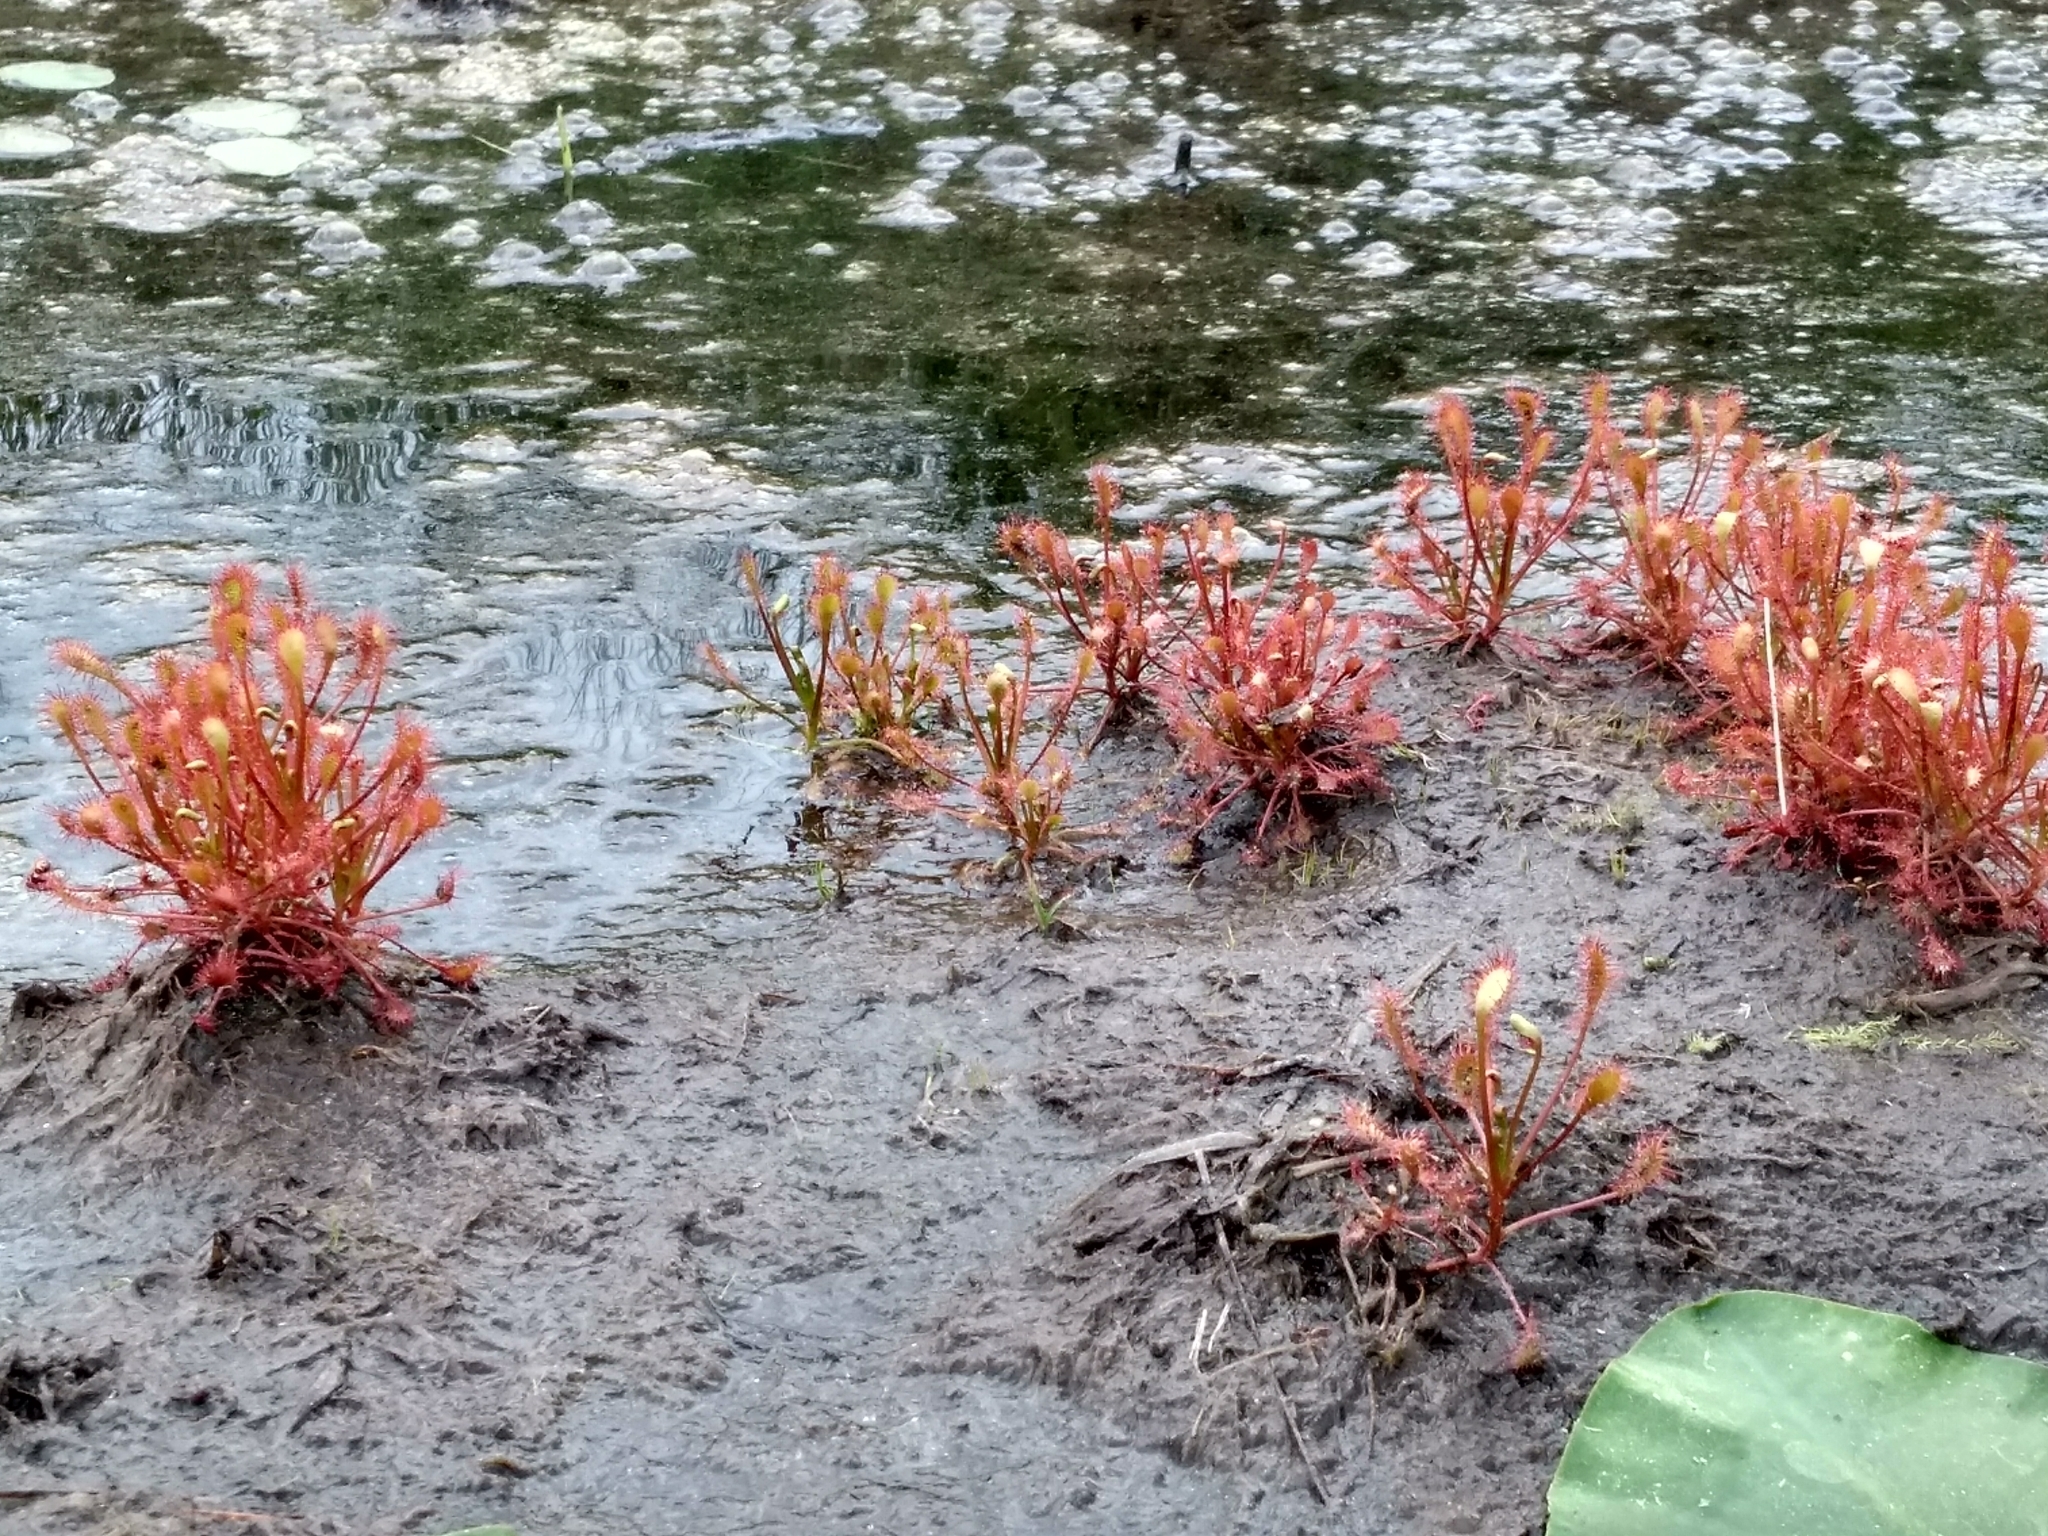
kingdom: Plantae
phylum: Tracheophyta
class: Magnoliopsida
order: Caryophyllales
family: Droseraceae
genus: Drosera
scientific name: Drosera intermedia
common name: Oblong-leaved sundew
